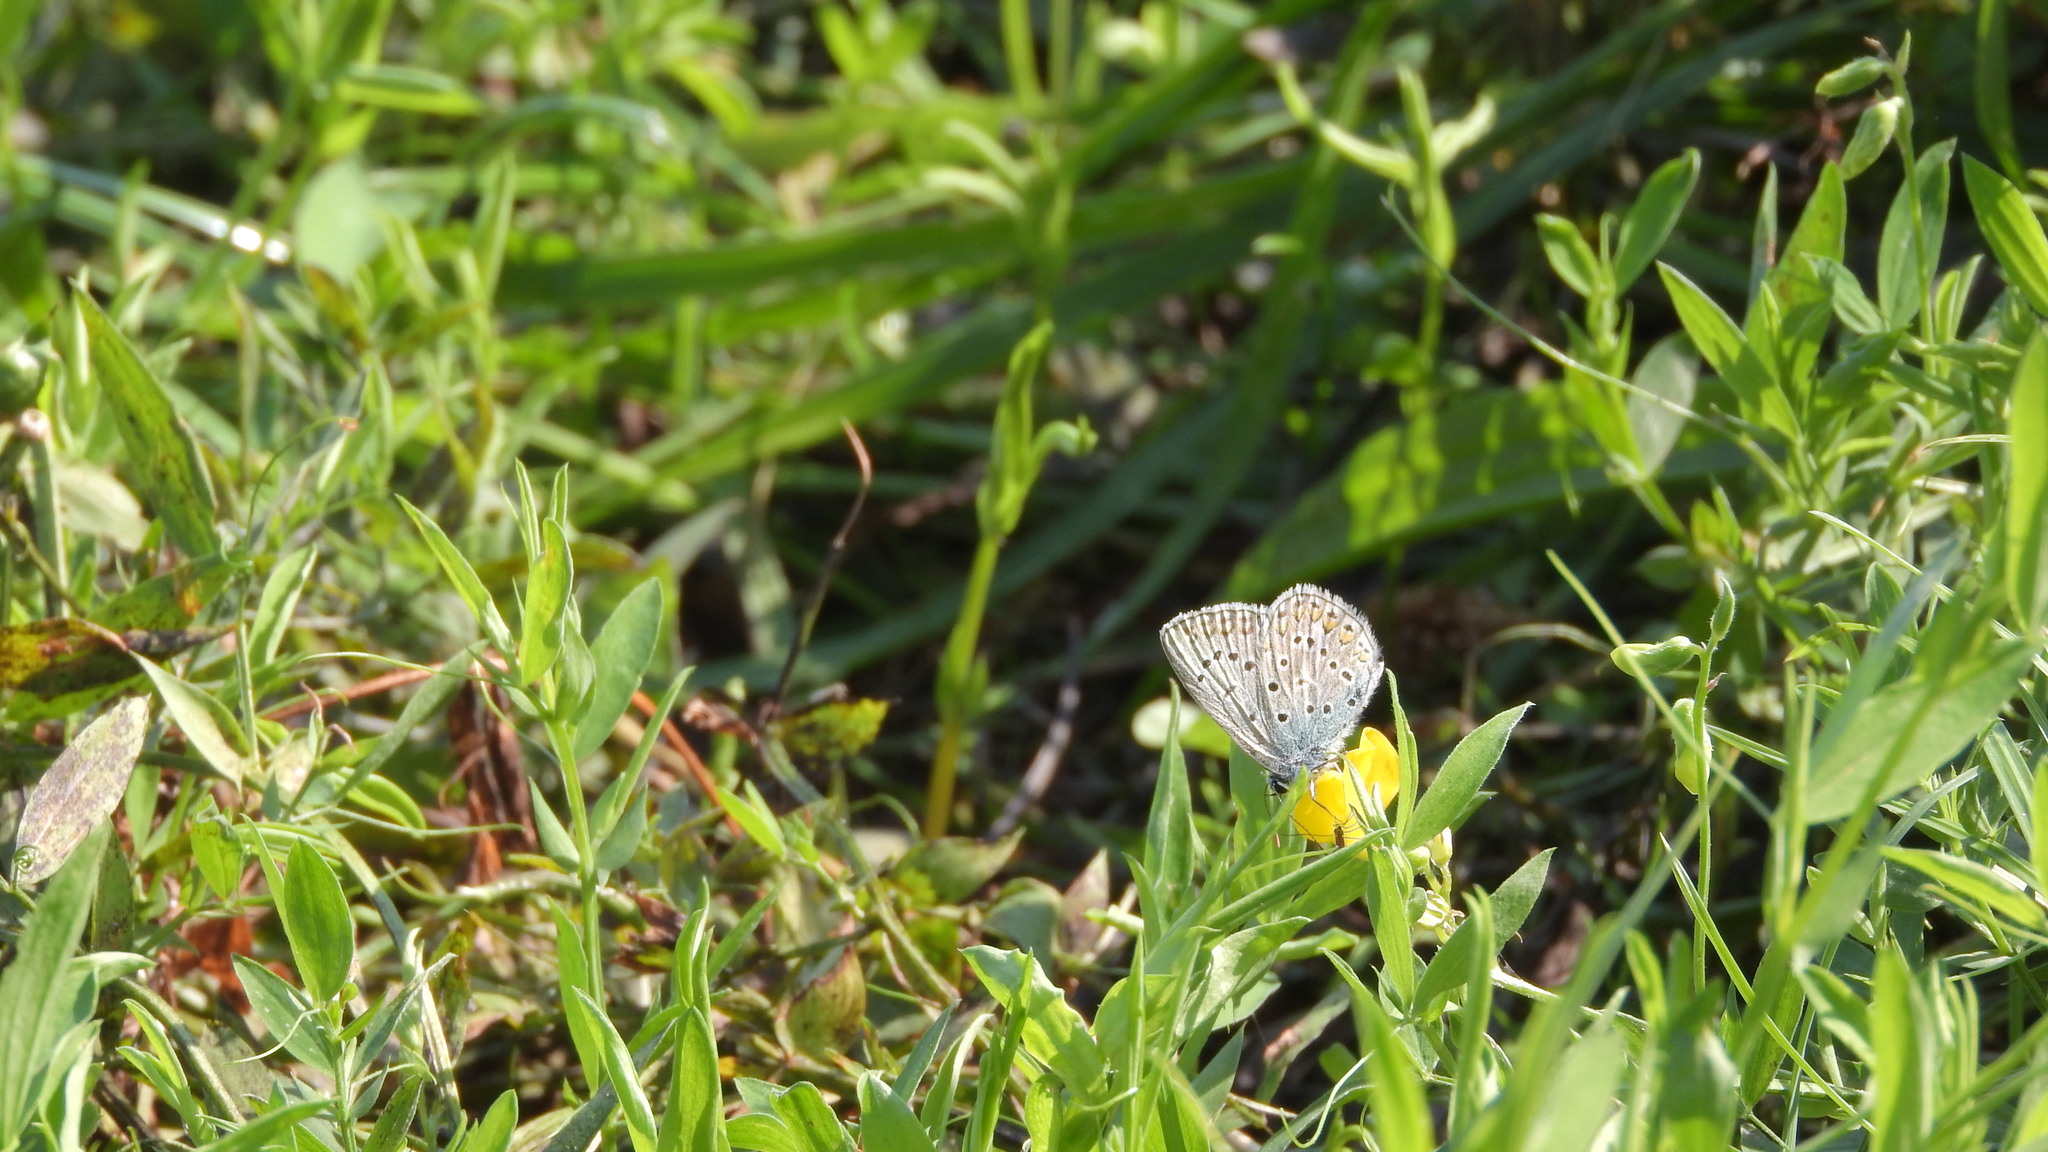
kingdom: Animalia
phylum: Arthropoda
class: Insecta
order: Lepidoptera
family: Lycaenidae
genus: Polyommatus
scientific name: Polyommatus icarus
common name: Common blue
